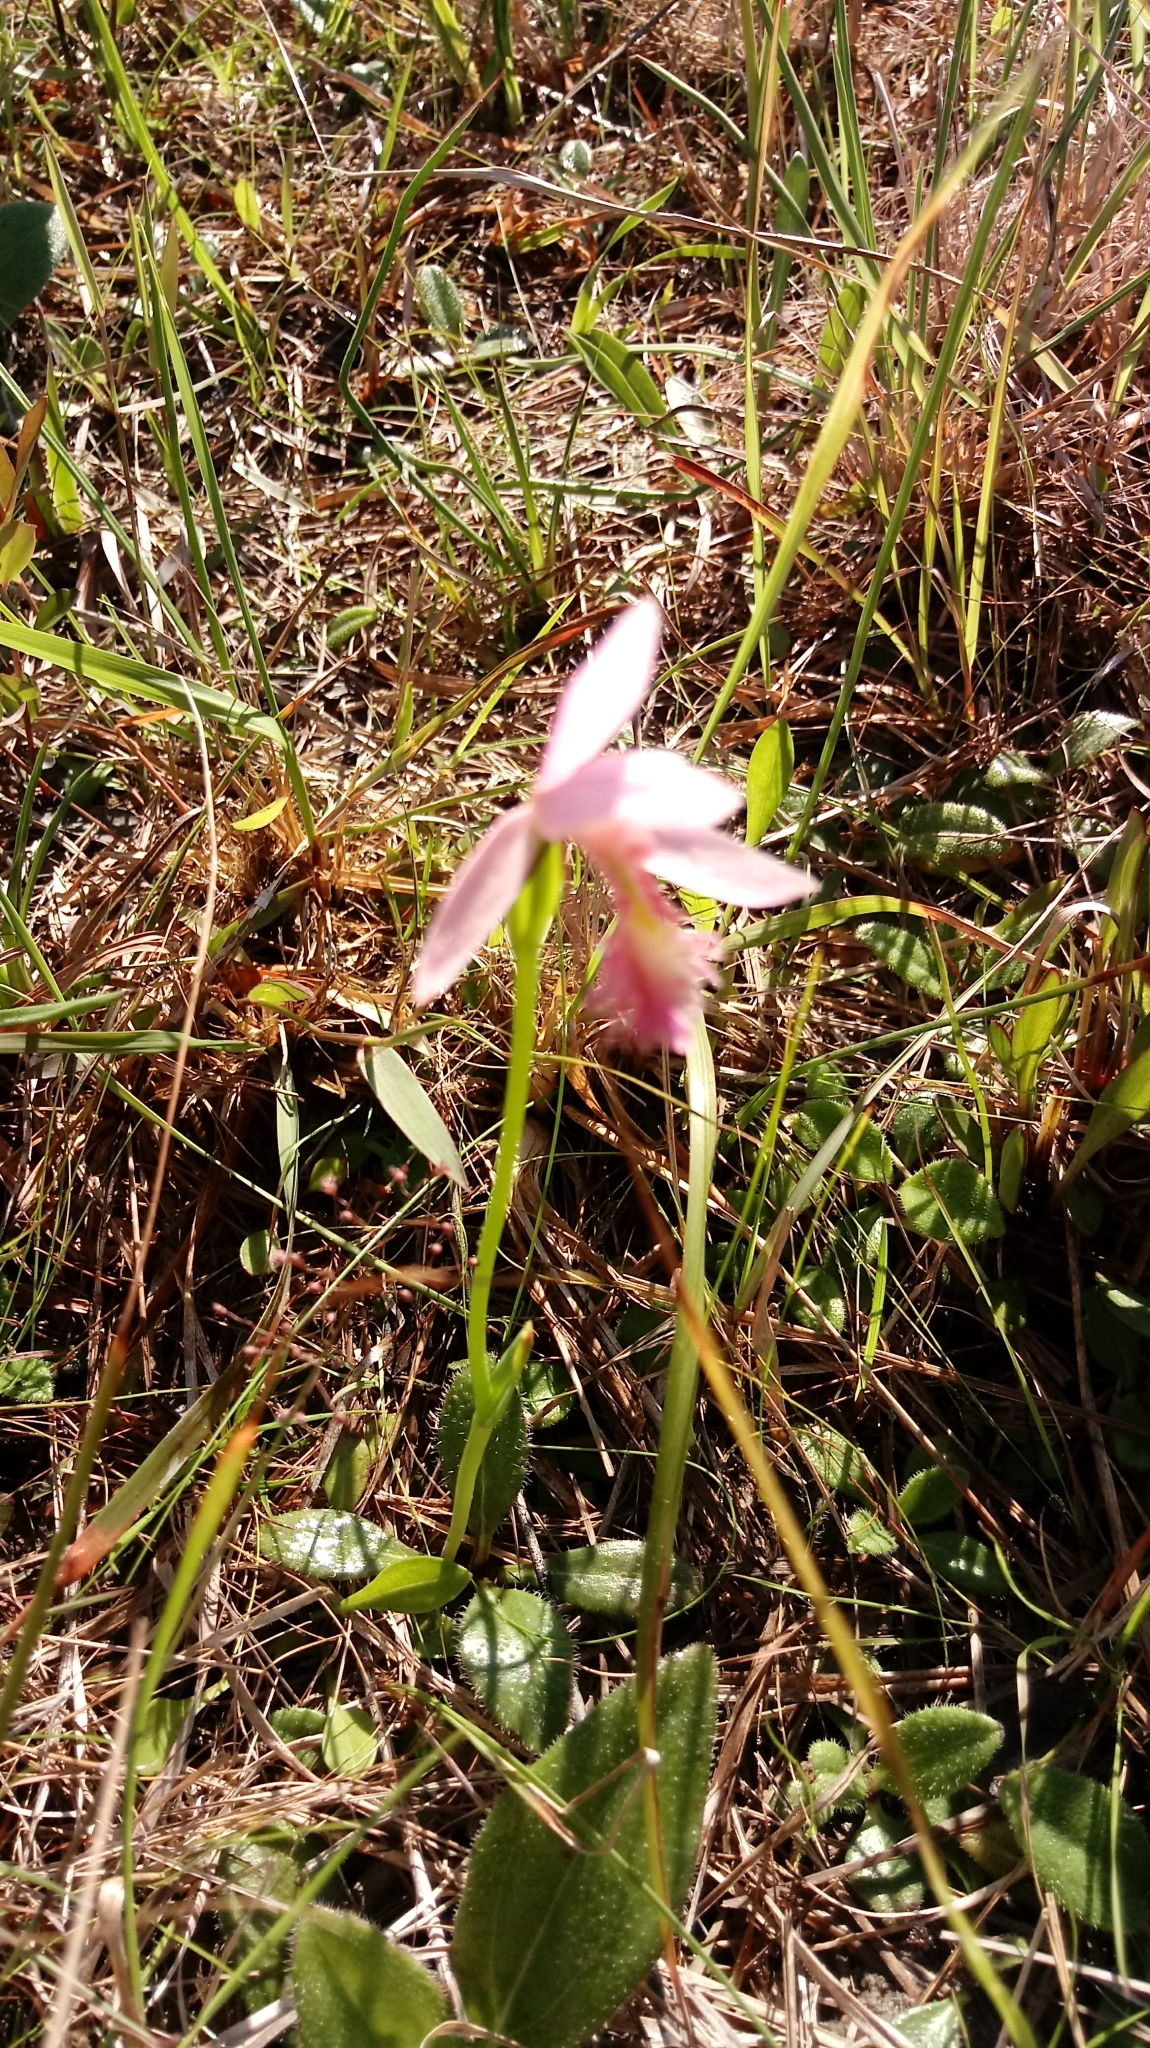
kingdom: Plantae
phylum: Tracheophyta
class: Liliopsida
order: Asparagales
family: Orchidaceae
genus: Pogonia
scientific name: Pogonia ophioglossoides
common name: Rose pogonia
